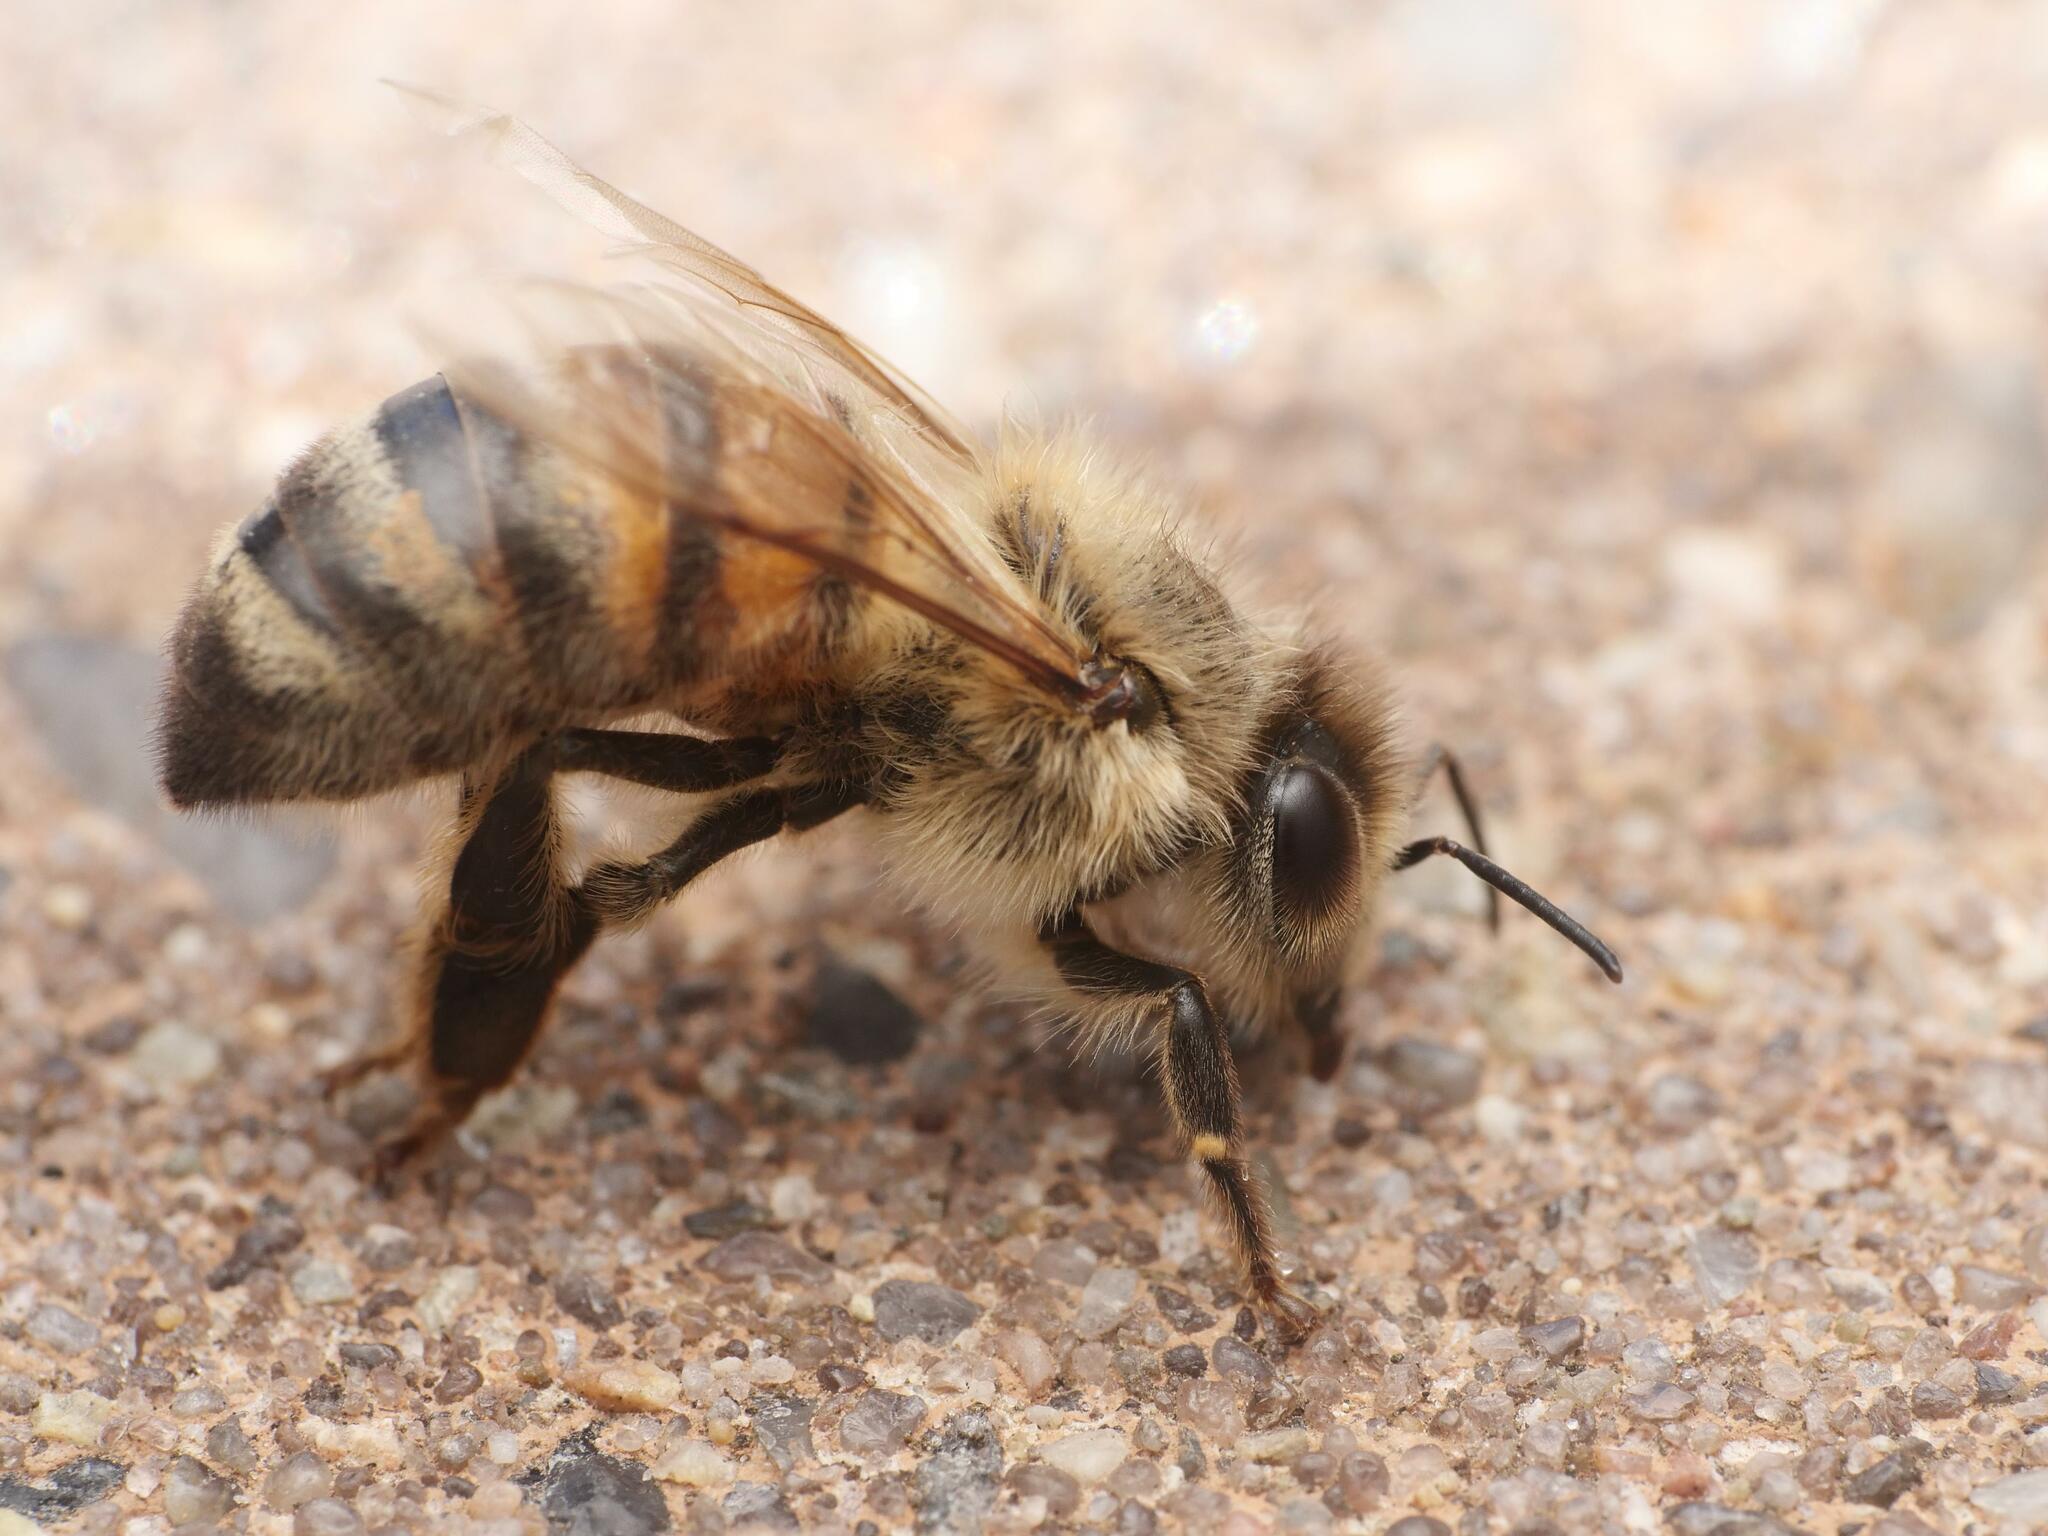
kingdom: Animalia
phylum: Arthropoda
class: Insecta
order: Hymenoptera
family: Apidae
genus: Apis
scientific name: Apis mellifera
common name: Honey bee
